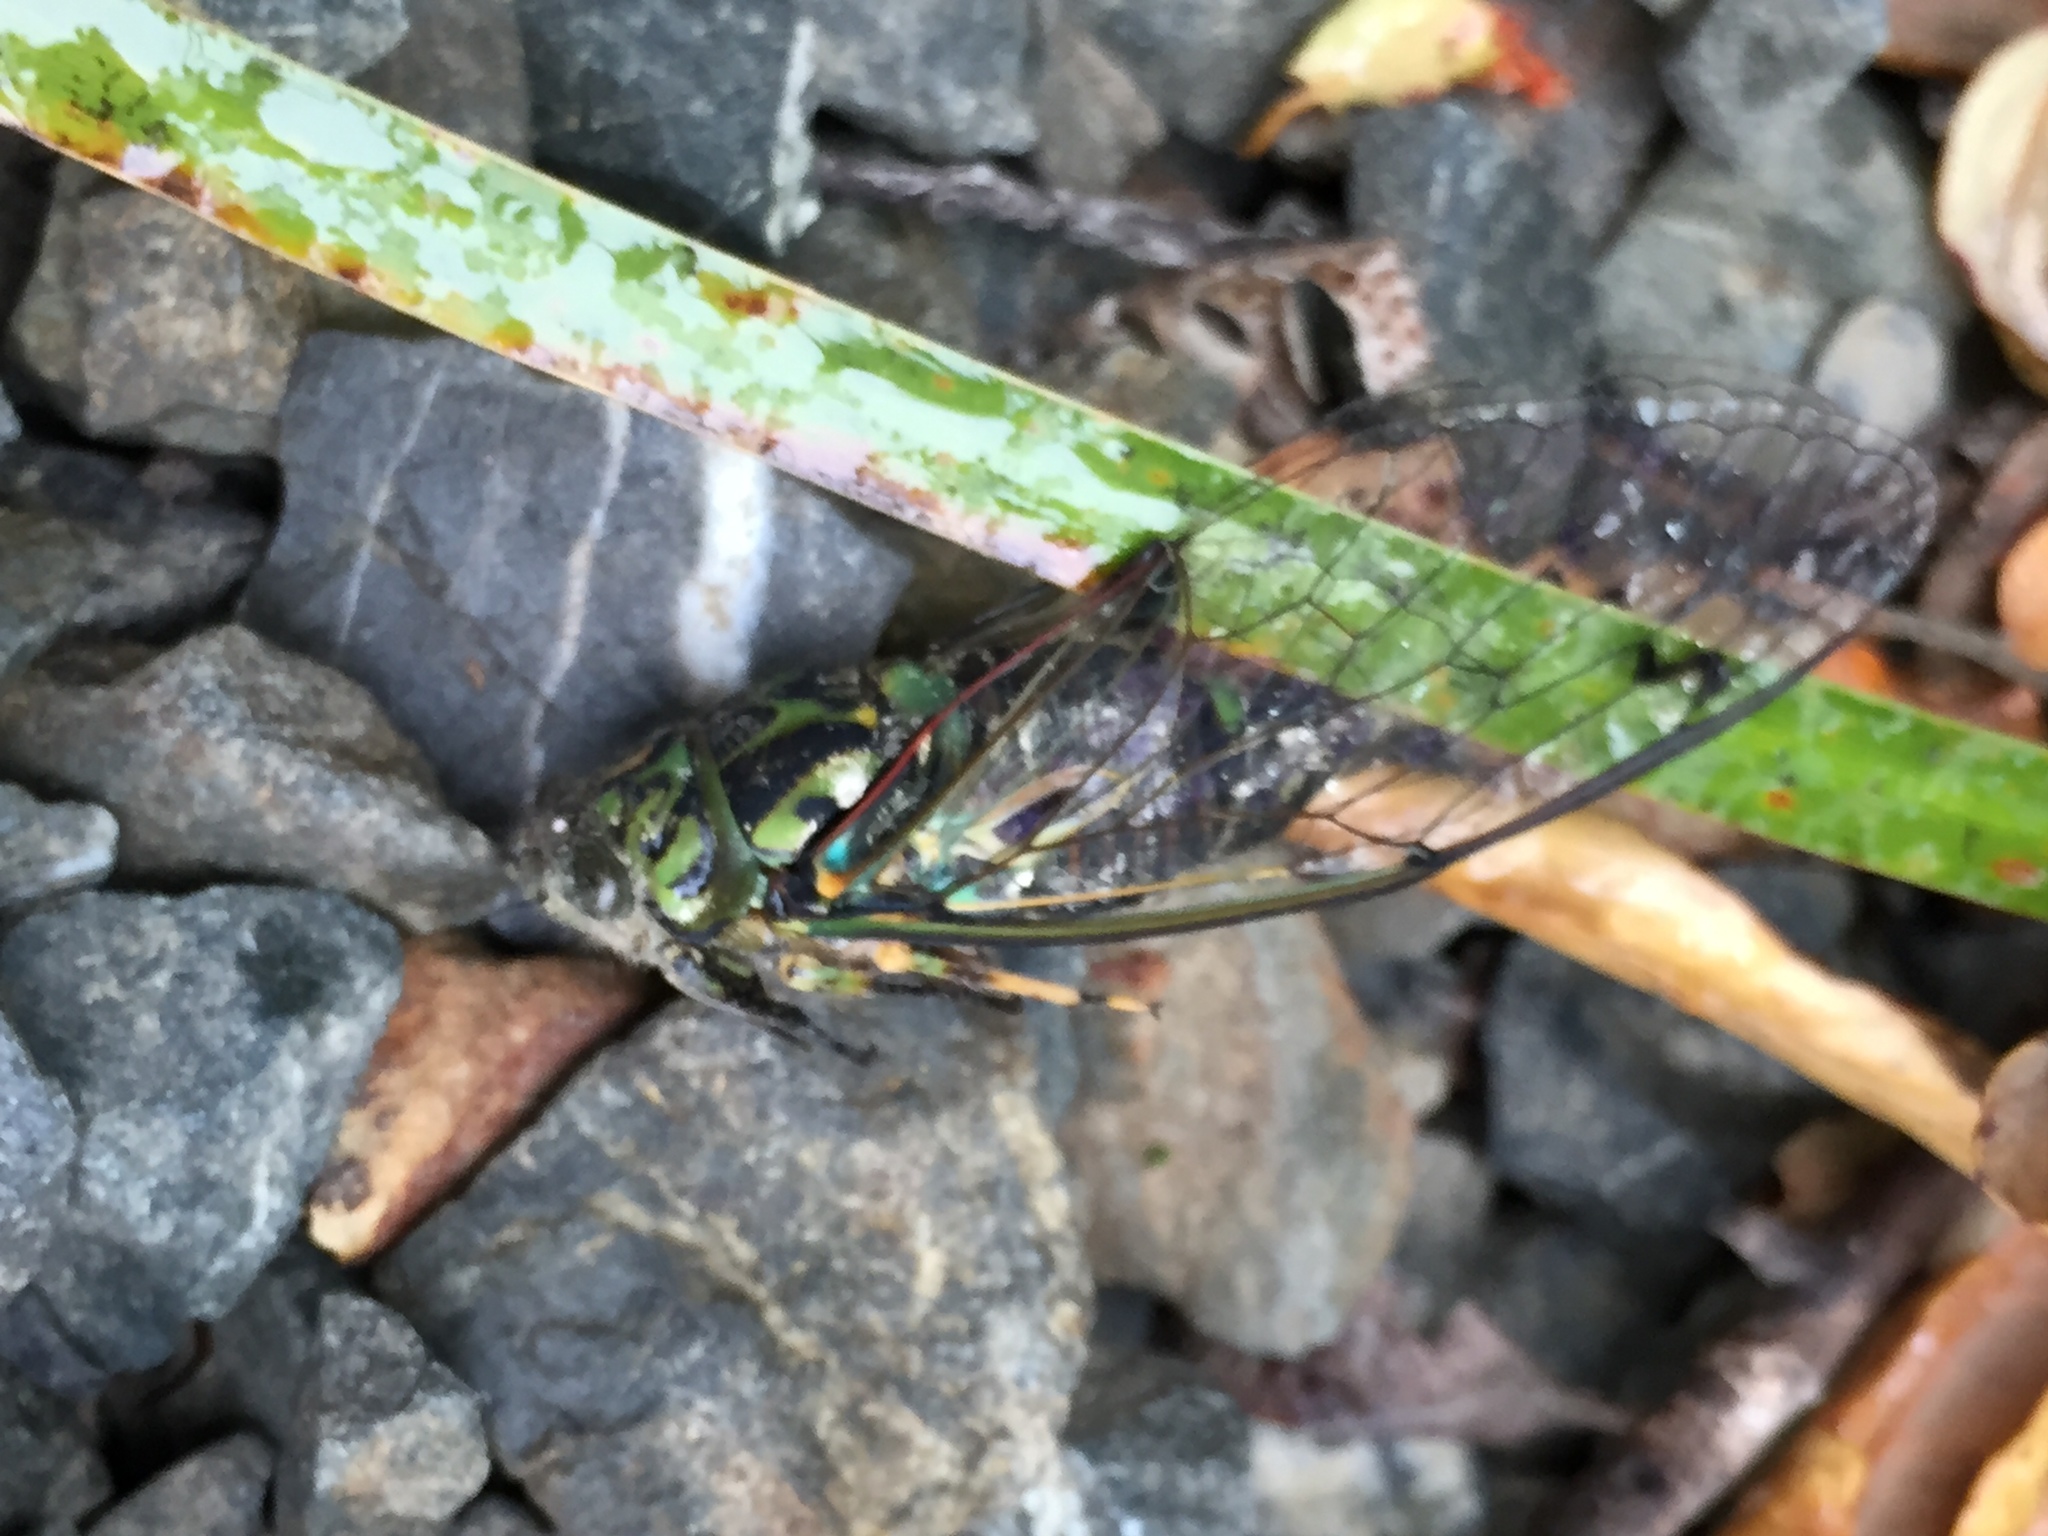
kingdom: Animalia
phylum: Arthropoda
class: Insecta
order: Hemiptera
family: Cicadidae
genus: Amphipsalta
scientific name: Amphipsalta zelandica
